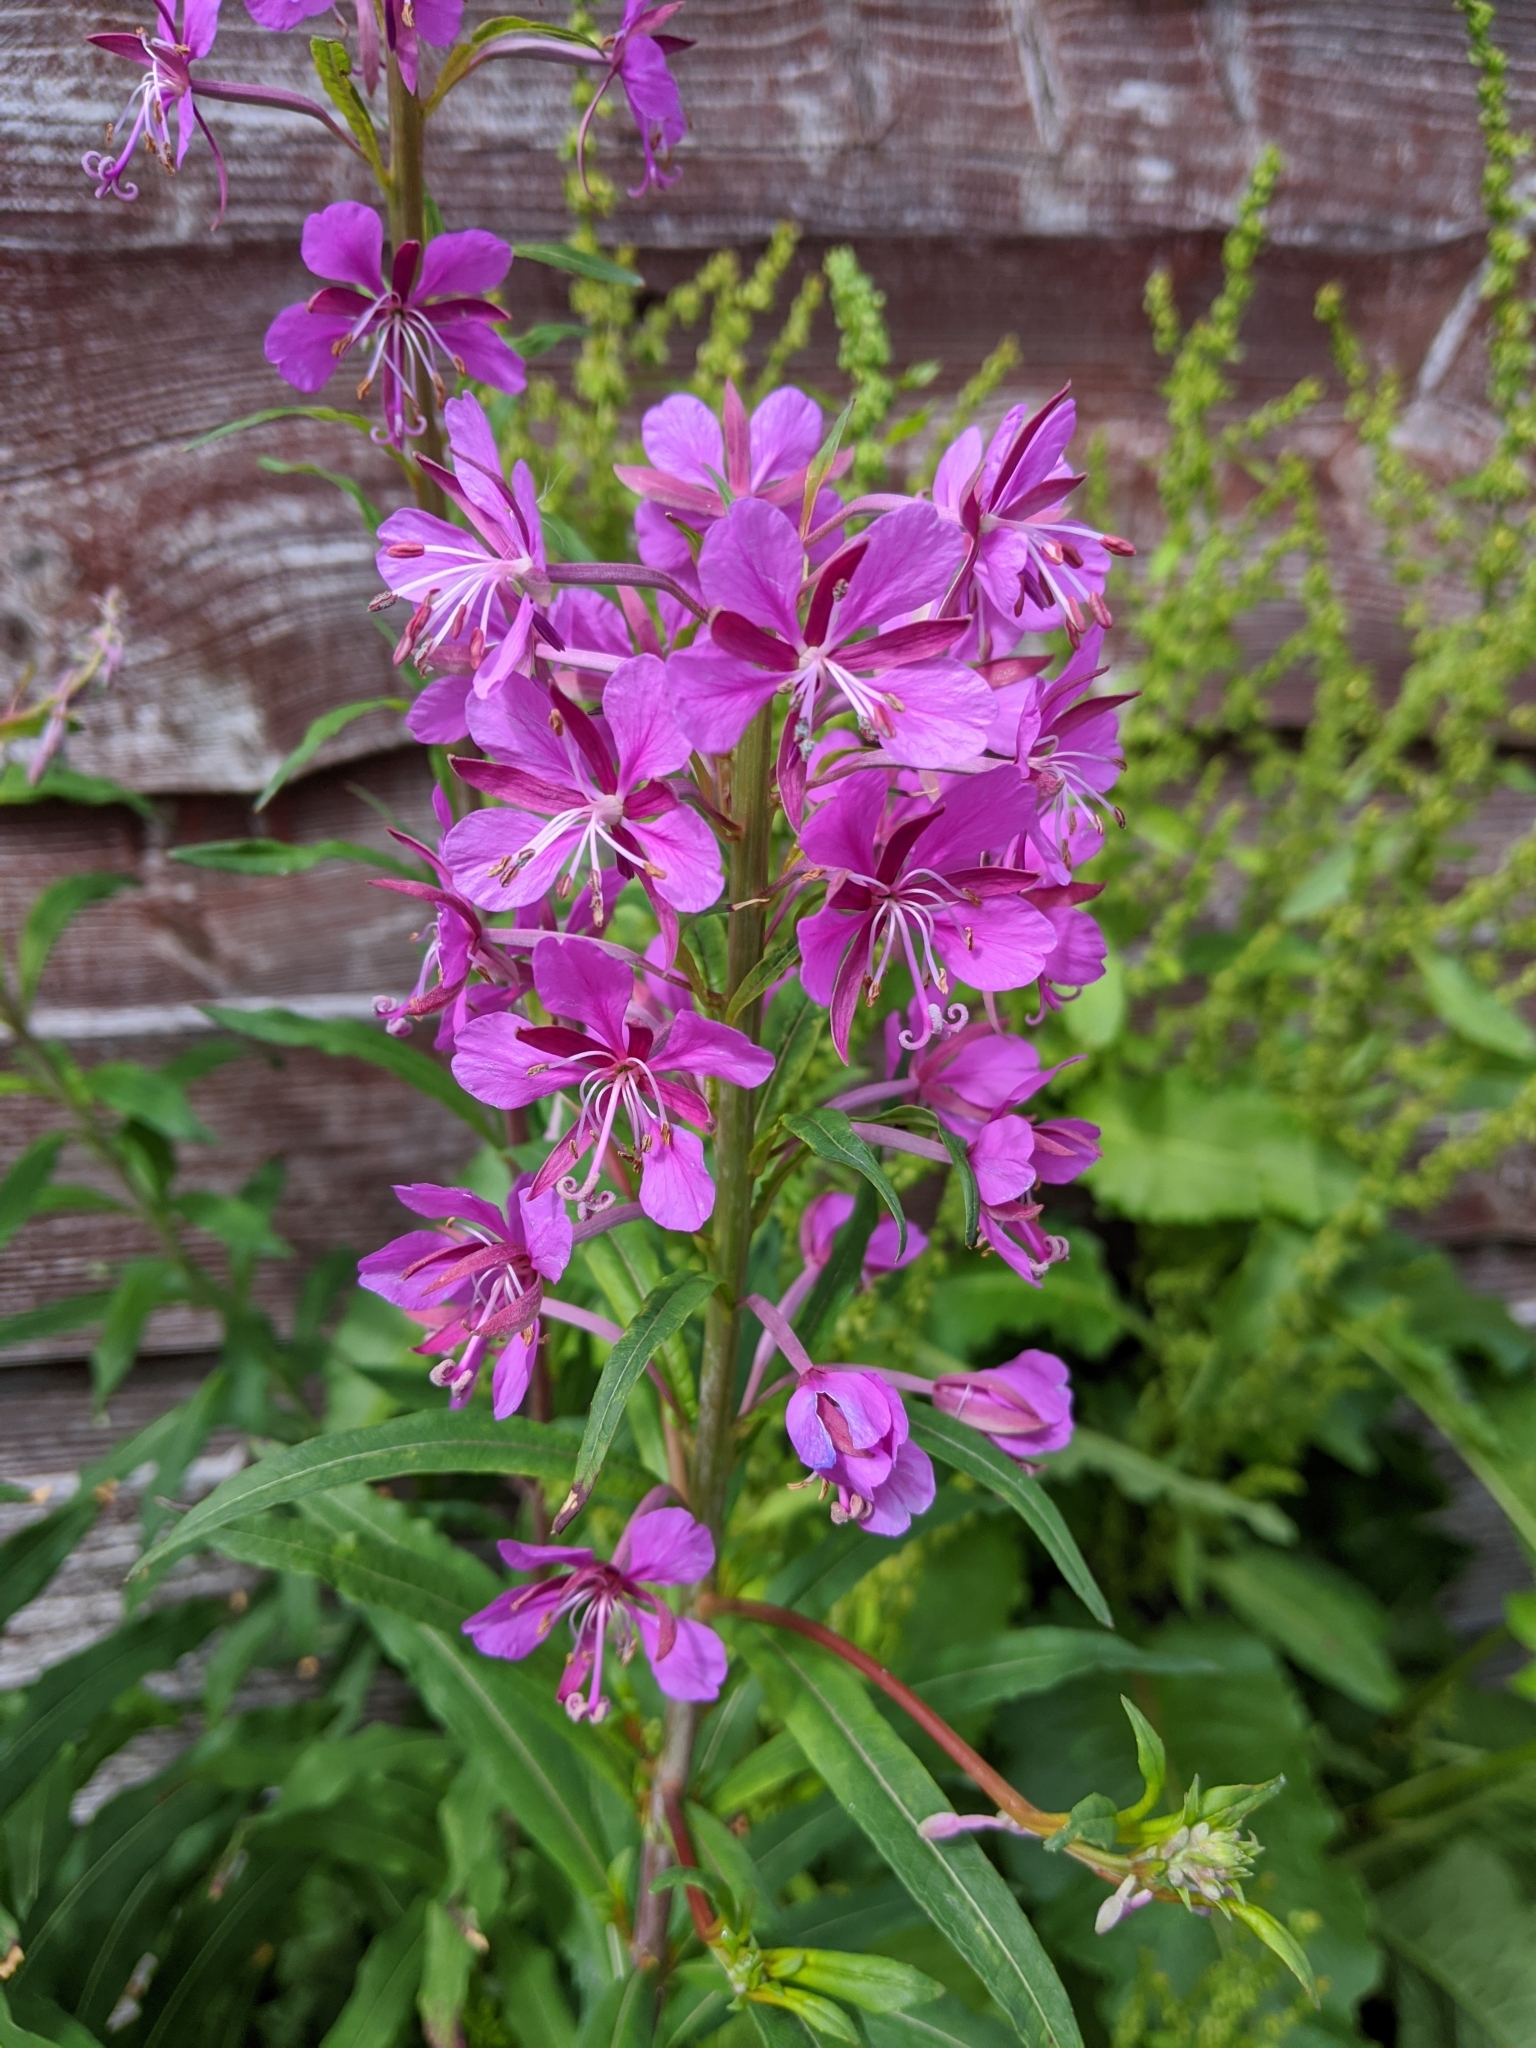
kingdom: Plantae
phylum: Tracheophyta
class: Magnoliopsida
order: Myrtales
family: Onagraceae
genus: Chamaenerion
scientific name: Chamaenerion angustifolium
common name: Fireweed
